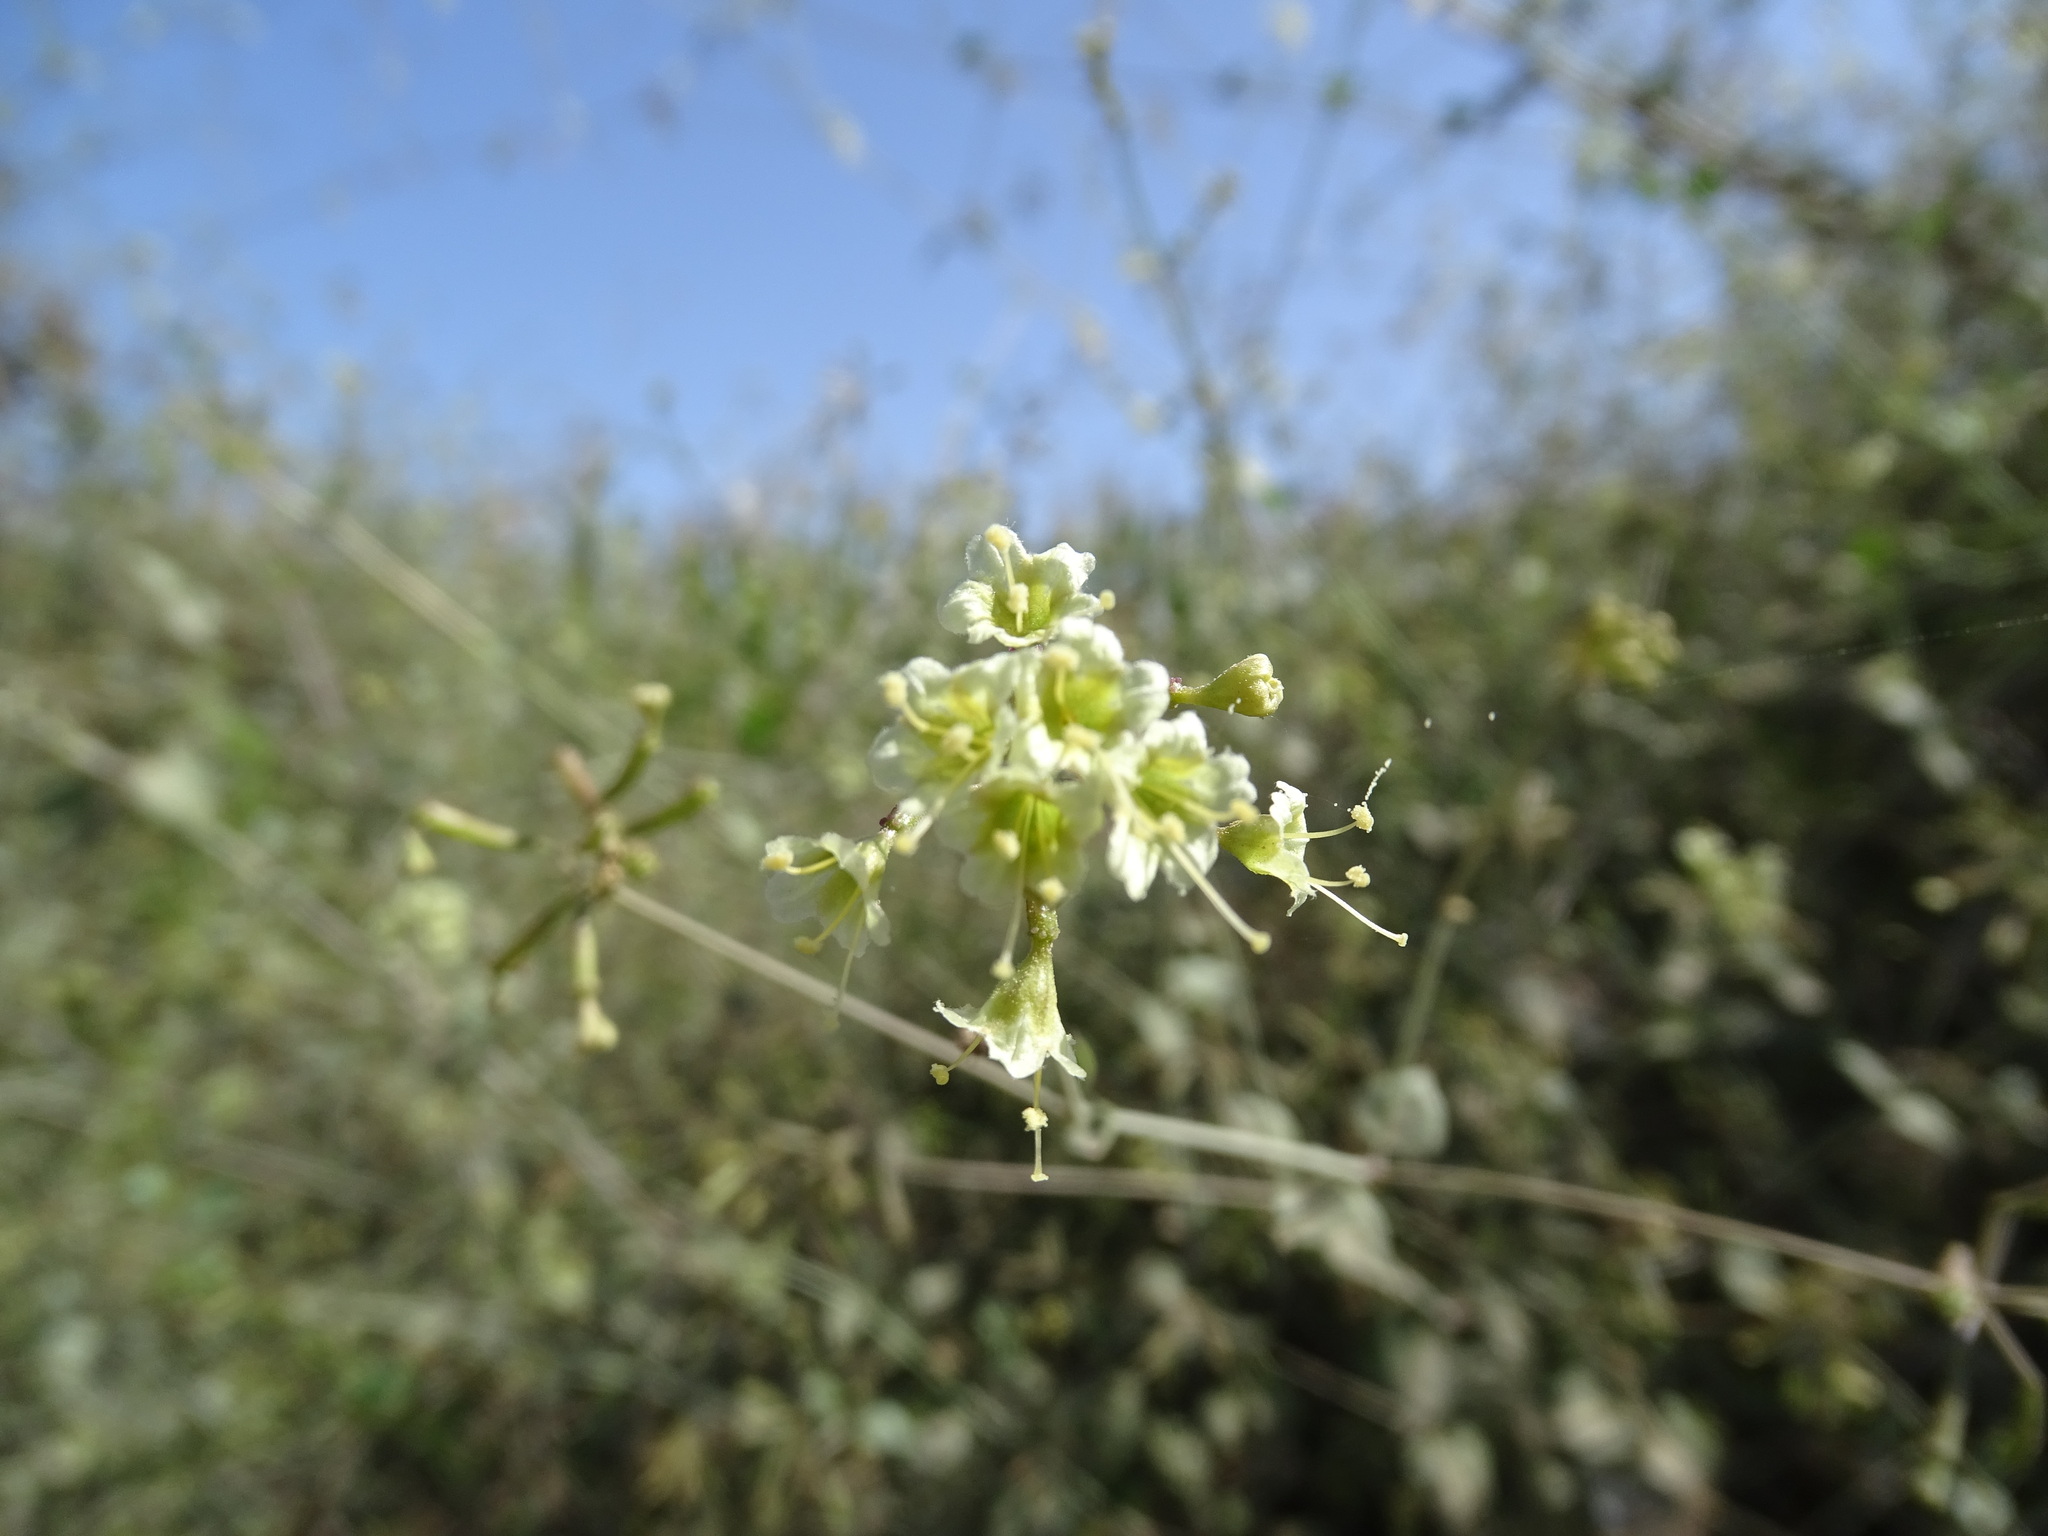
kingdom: Plantae
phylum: Tracheophyta
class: Magnoliopsida
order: Caryophyllales
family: Nyctaginaceae
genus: Commicarpus
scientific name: Commicarpus scandens
